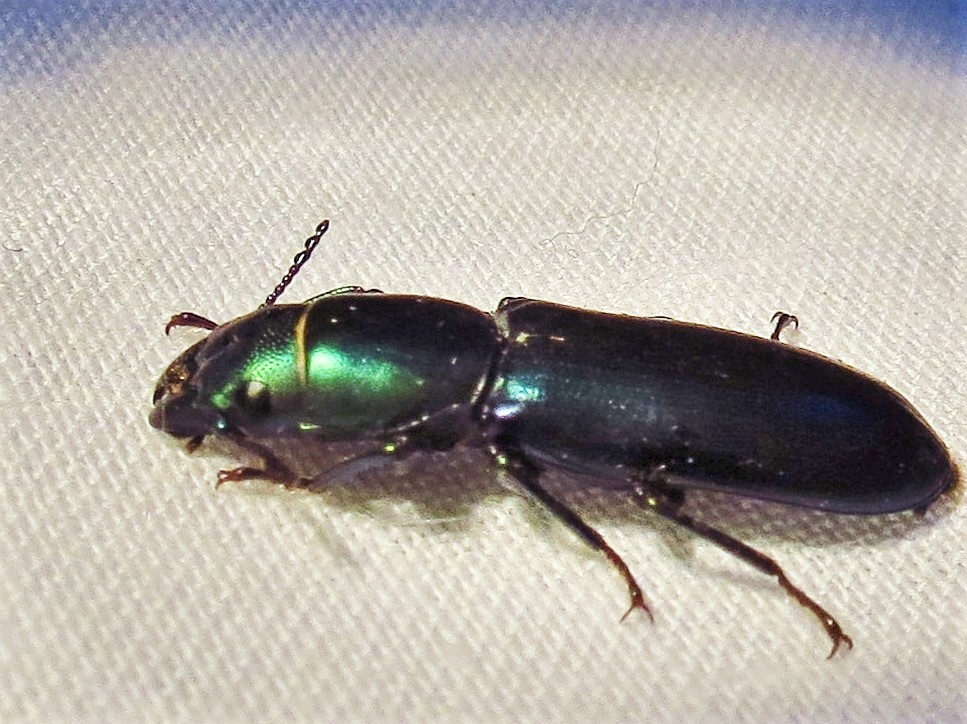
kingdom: Animalia
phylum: Arthropoda
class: Insecta
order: Coleoptera
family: Trogossitidae
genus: Temnochila
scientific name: Temnochila virescens
